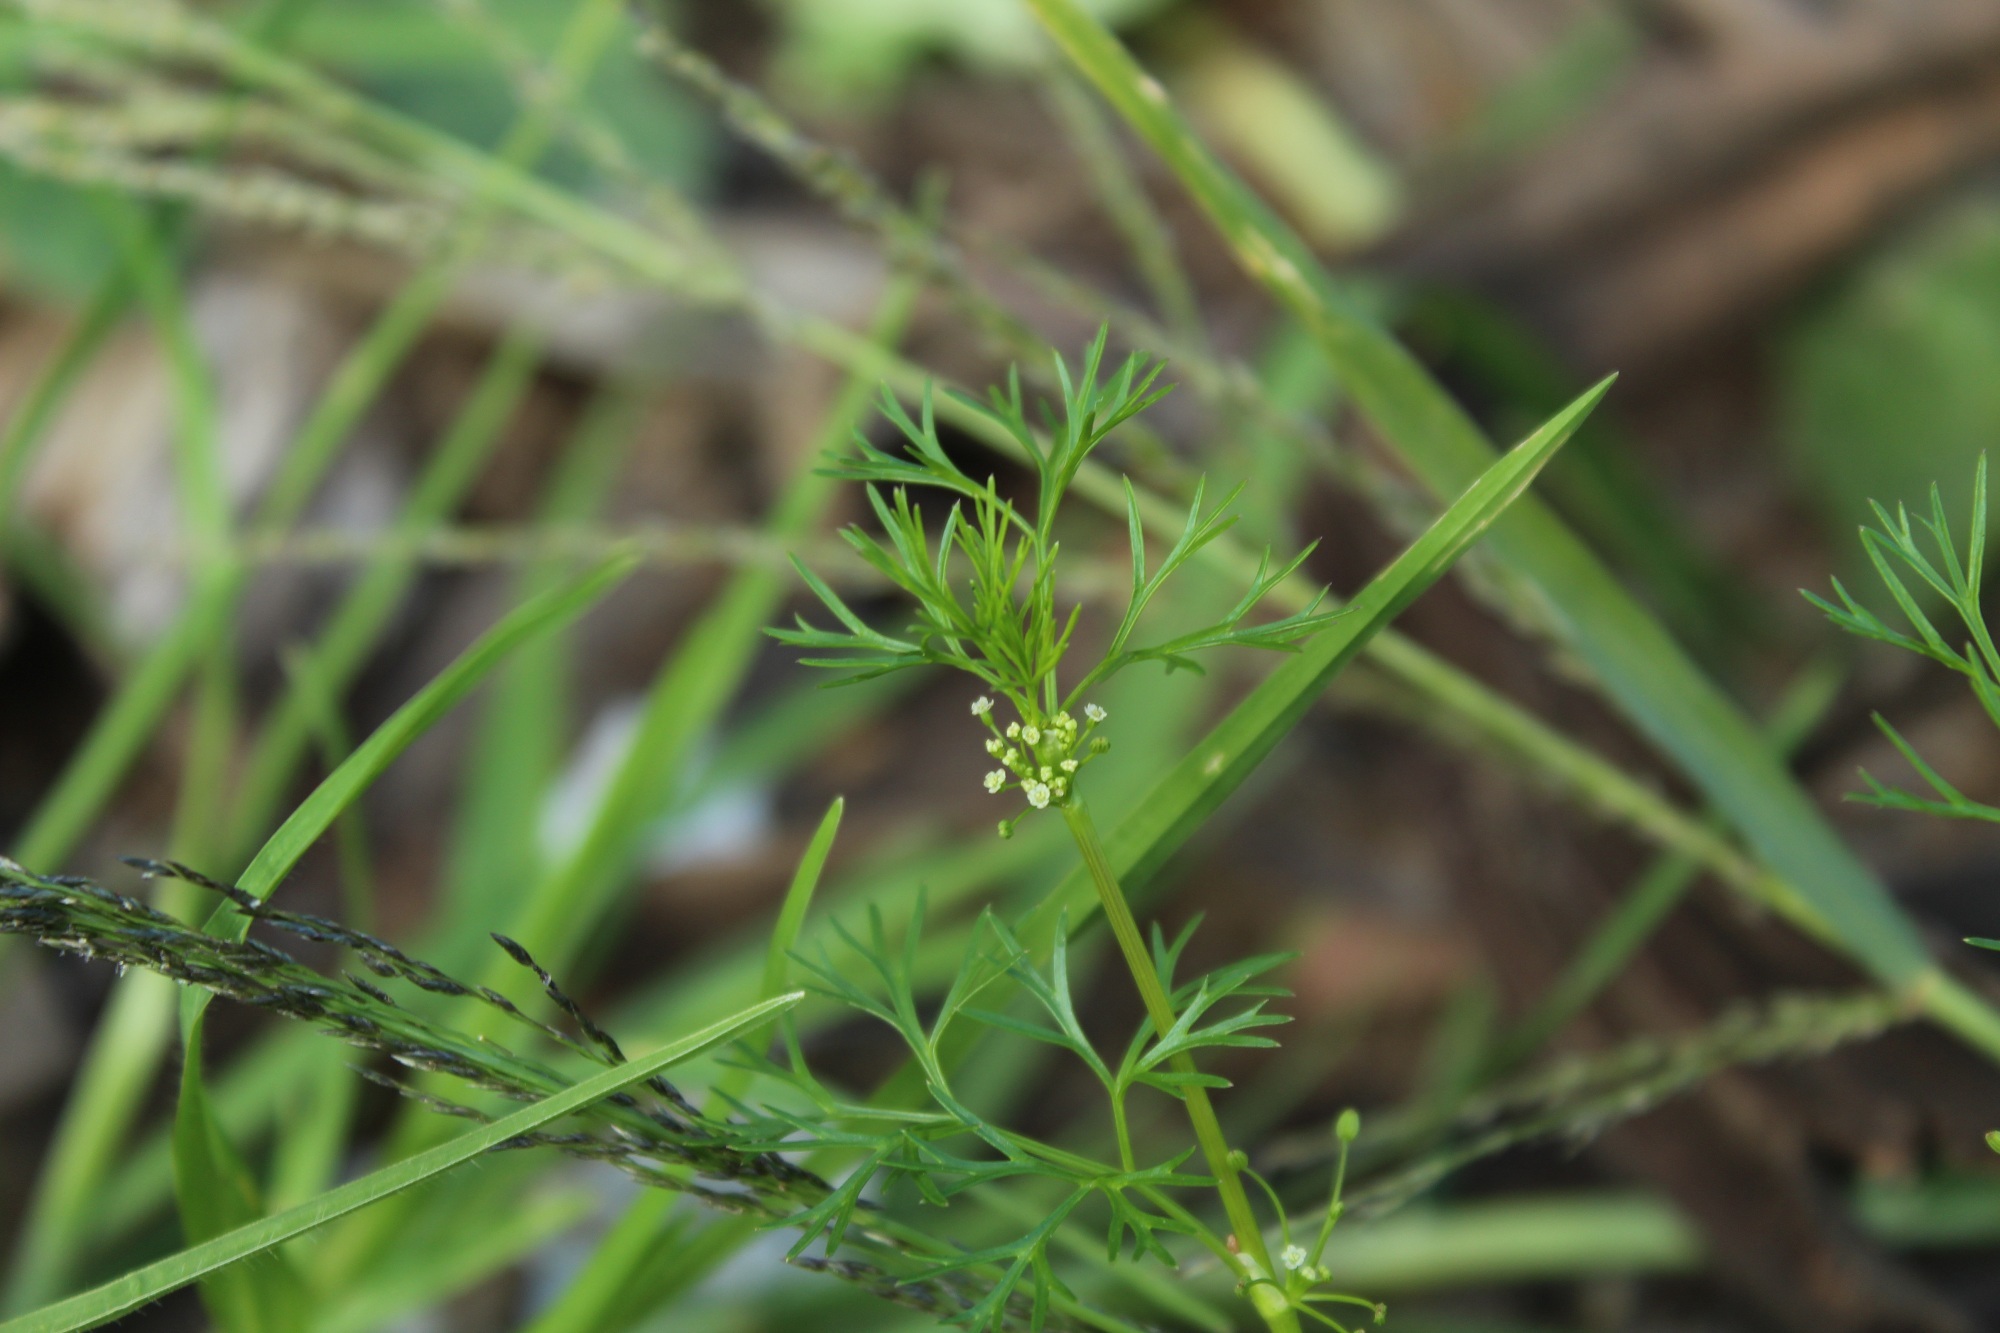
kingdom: Plantae
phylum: Tracheophyta
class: Magnoliopsida
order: Apiales
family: Apiaceae
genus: Cyclospermum
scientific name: Cyclospermum leptophyllum
